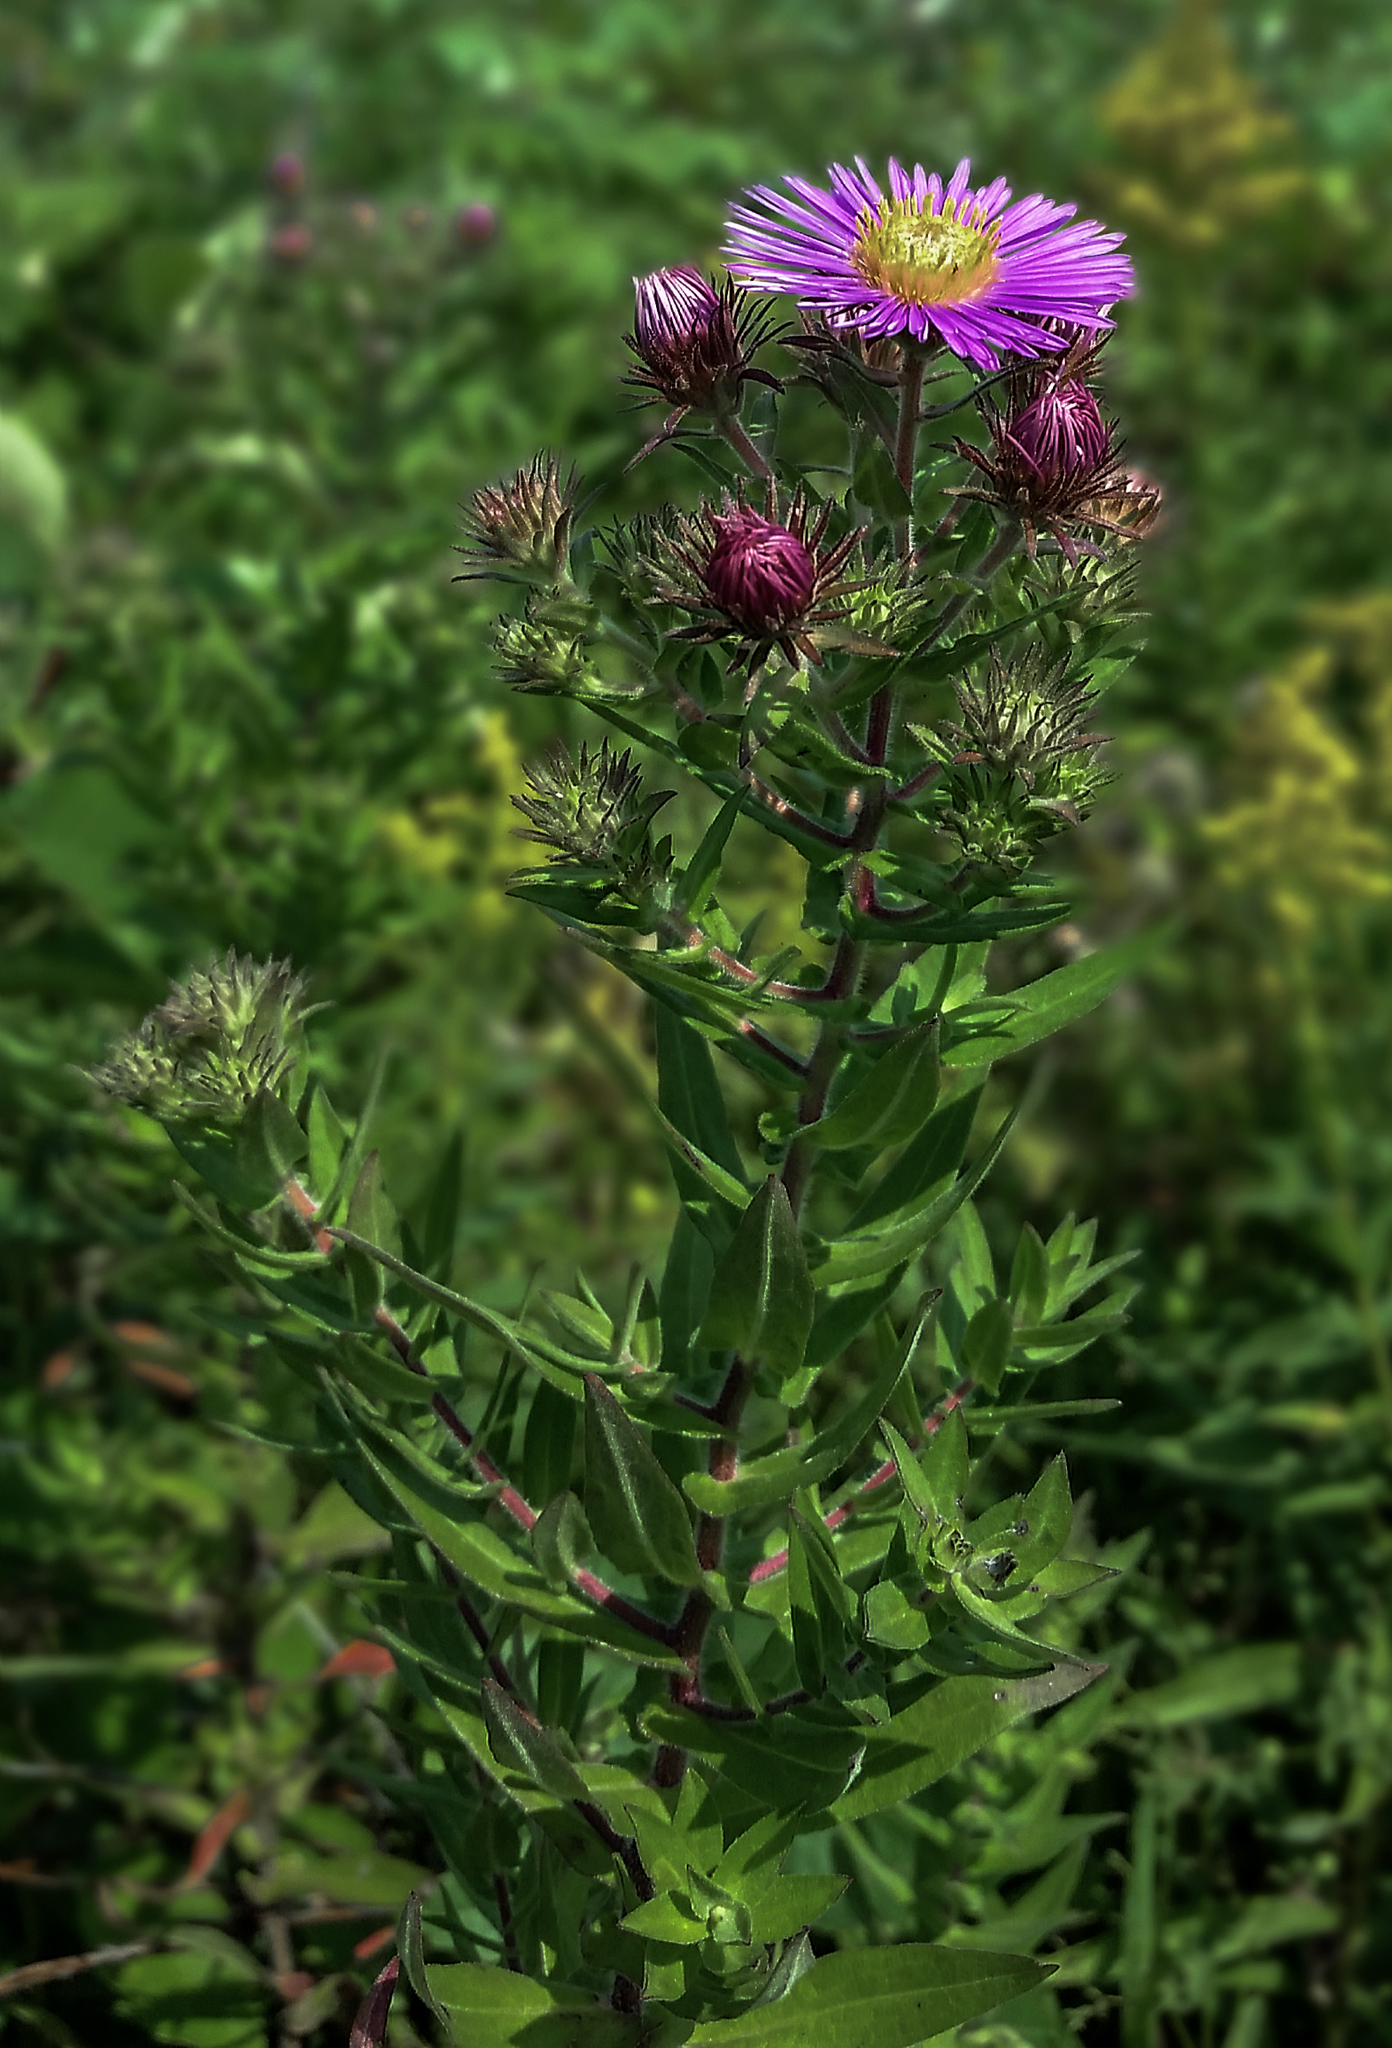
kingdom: Plantae
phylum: Tracheophyta
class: Magnoliopsida
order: Asterales
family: Asteraceae
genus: Symphyotrichum
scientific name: Symphyotrichum novae-angliae
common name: Michaelmas daisy
